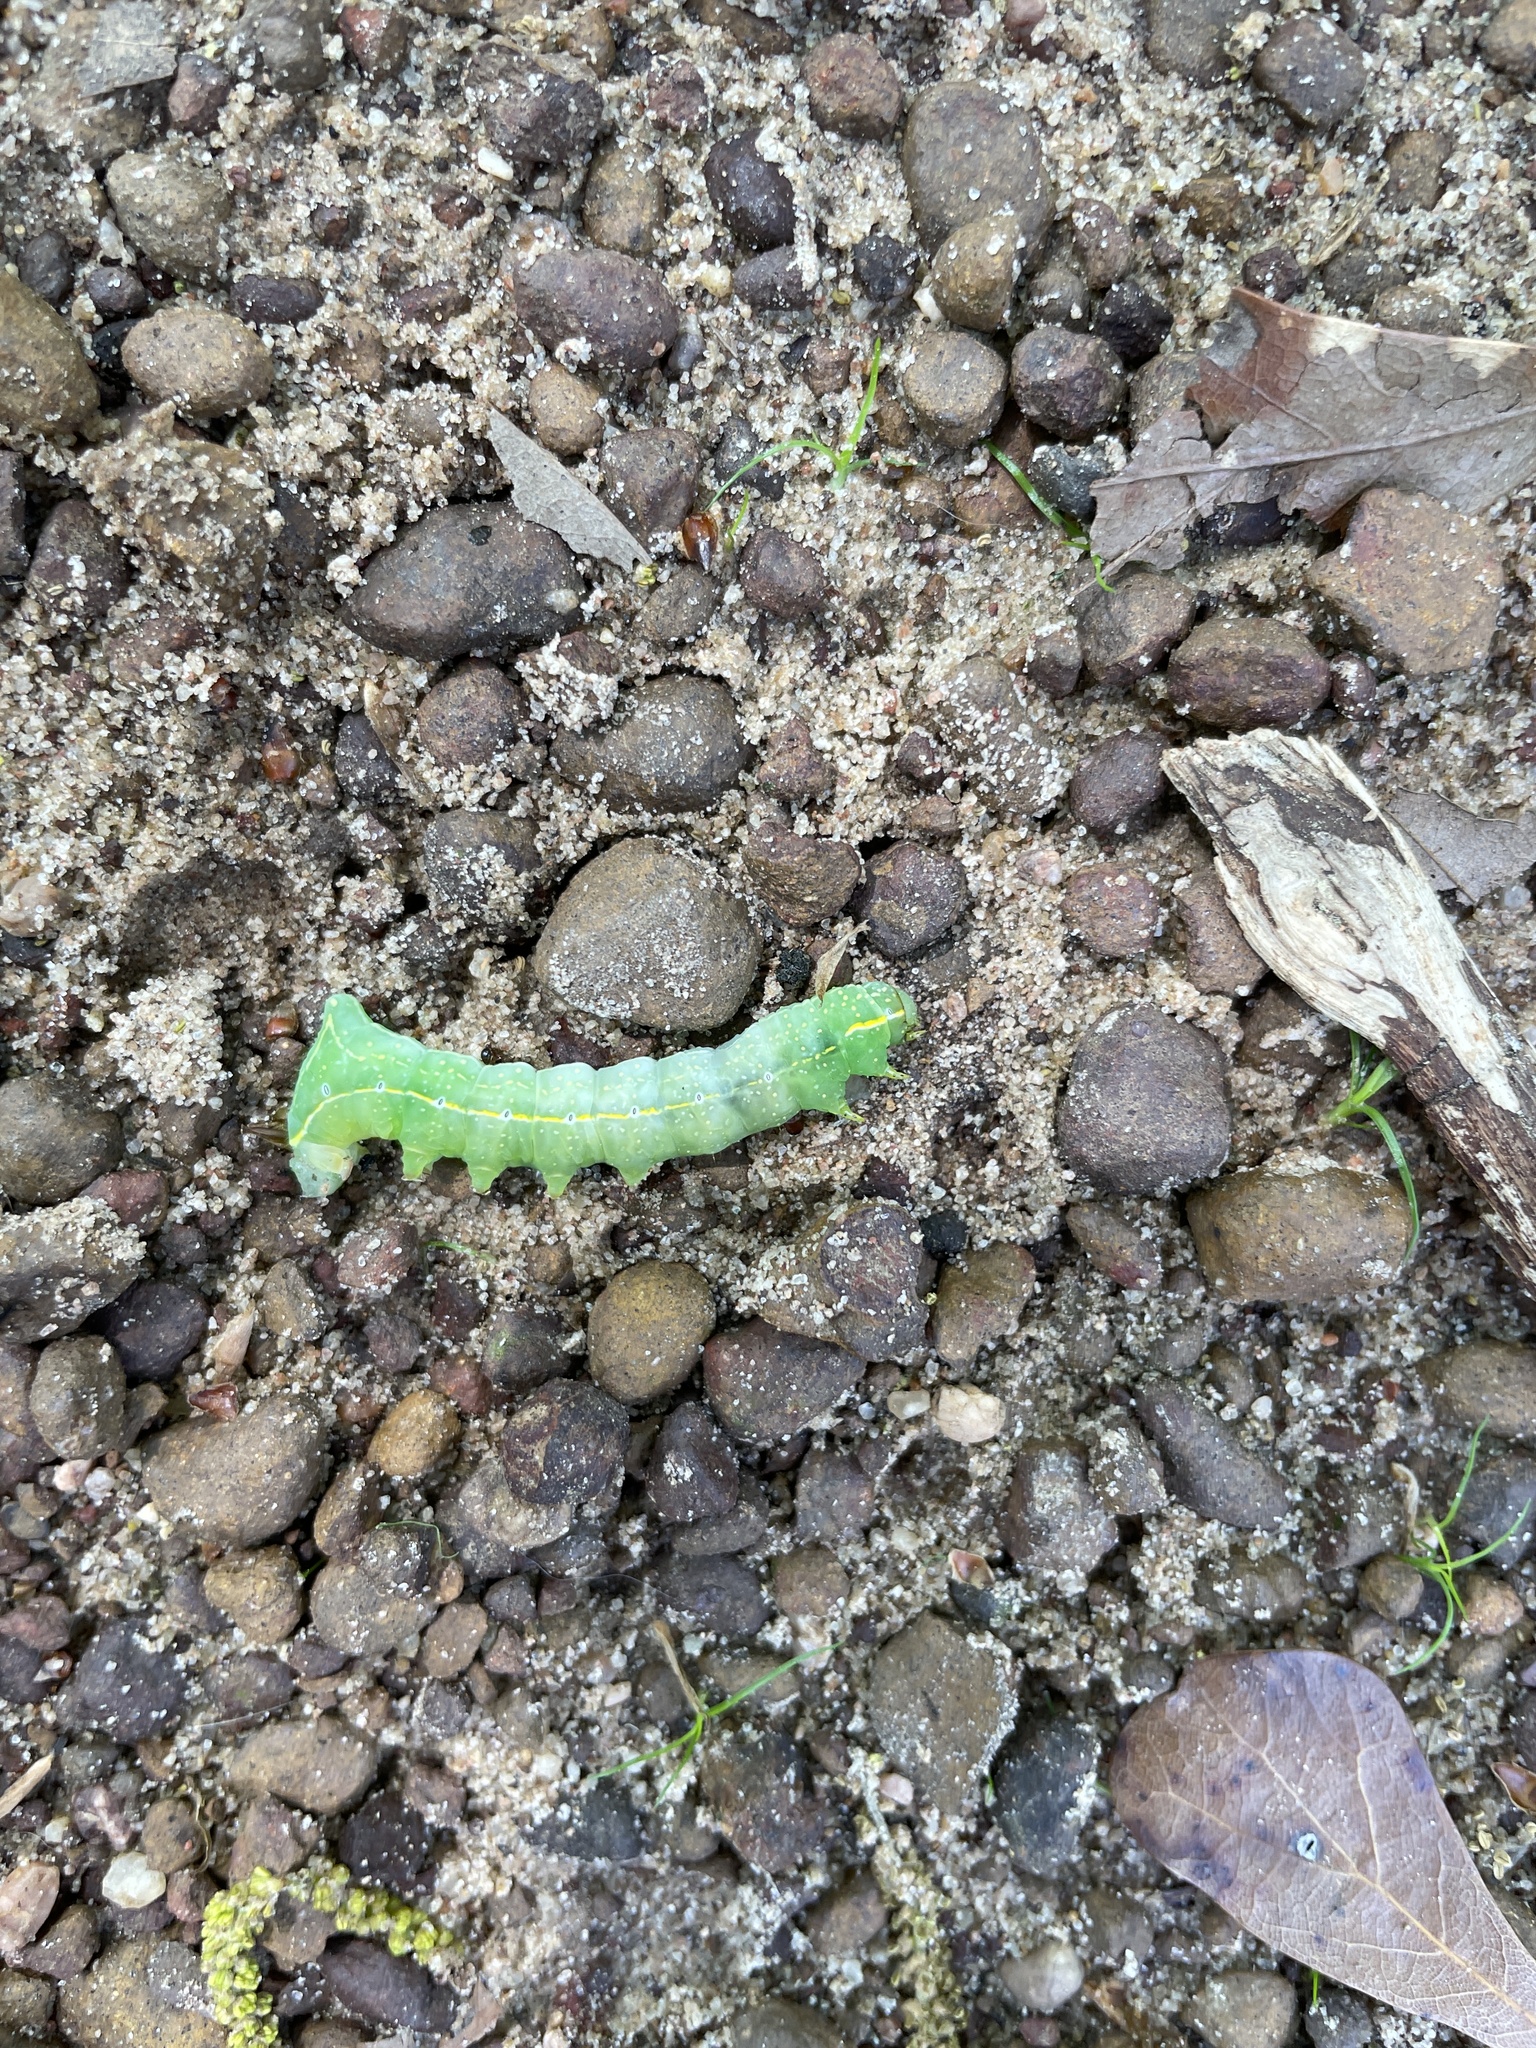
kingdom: Animalia
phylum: Arthropoda
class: Insecta
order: Lepidoptera
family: Noctuidae
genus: Amphipyra
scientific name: Amphipyra pyramidoides
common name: American copper underwing
